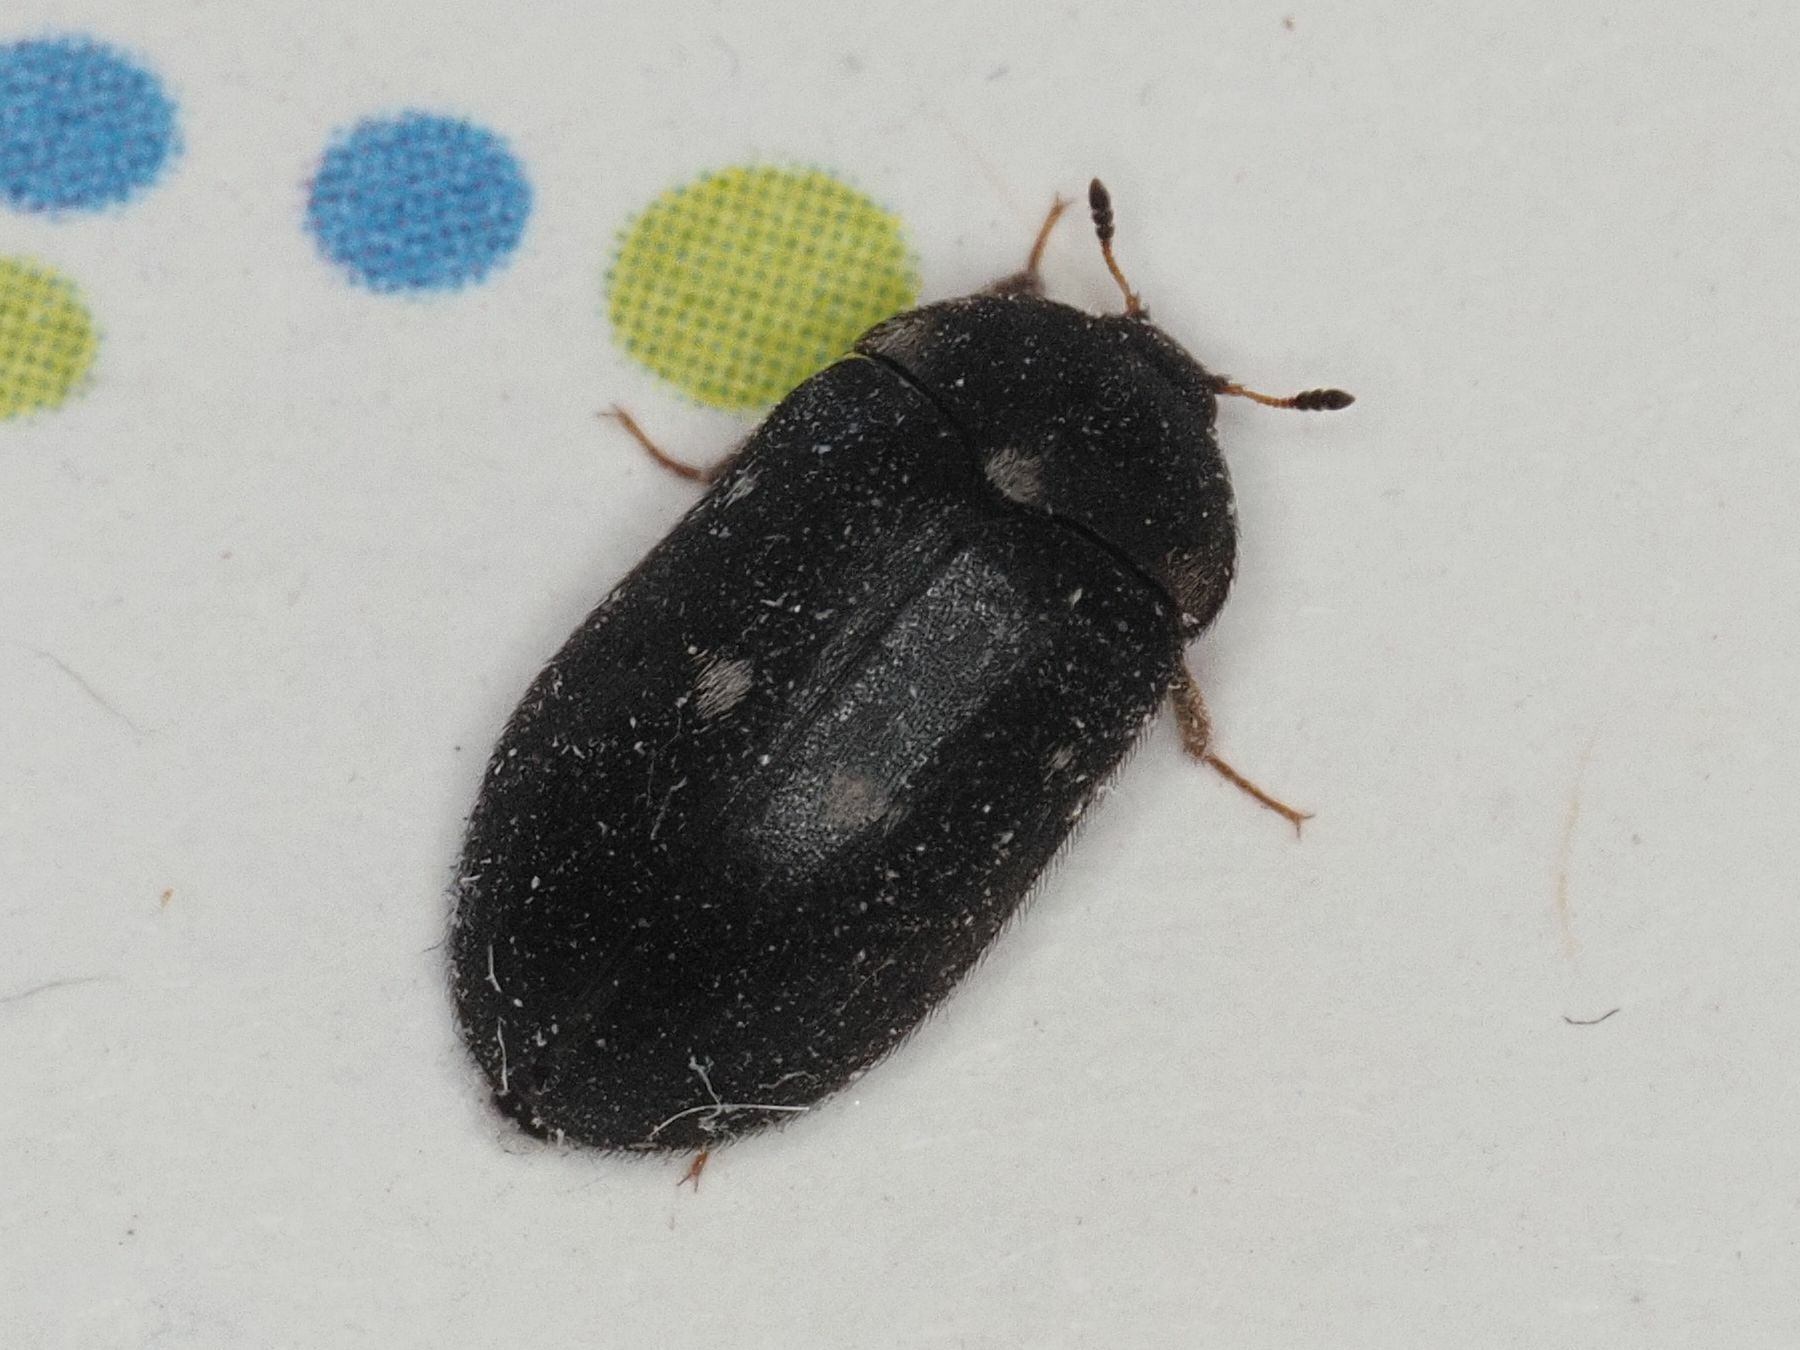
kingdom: Animalia
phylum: Arthropoda
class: Insecta
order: Coleoptera
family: Dermestidae
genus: Attagenus
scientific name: Attagenus pellio
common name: Two-spotted carpet beetle
